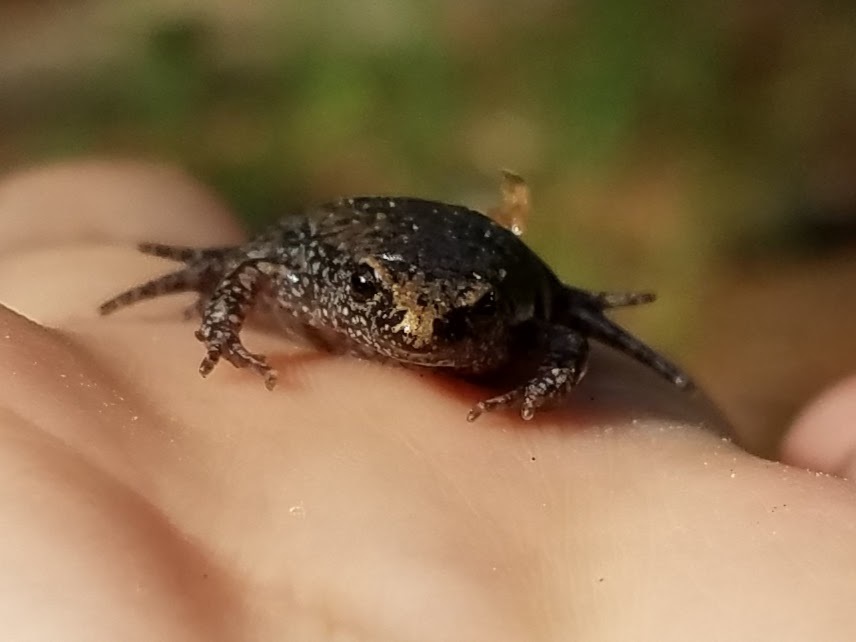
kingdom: Animalia
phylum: Chordata
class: Amphibia
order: Anura
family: Microhylidae
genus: Gastrophryne
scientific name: Gastrophryne carolinensis
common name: Eastern narrowmouth toad
